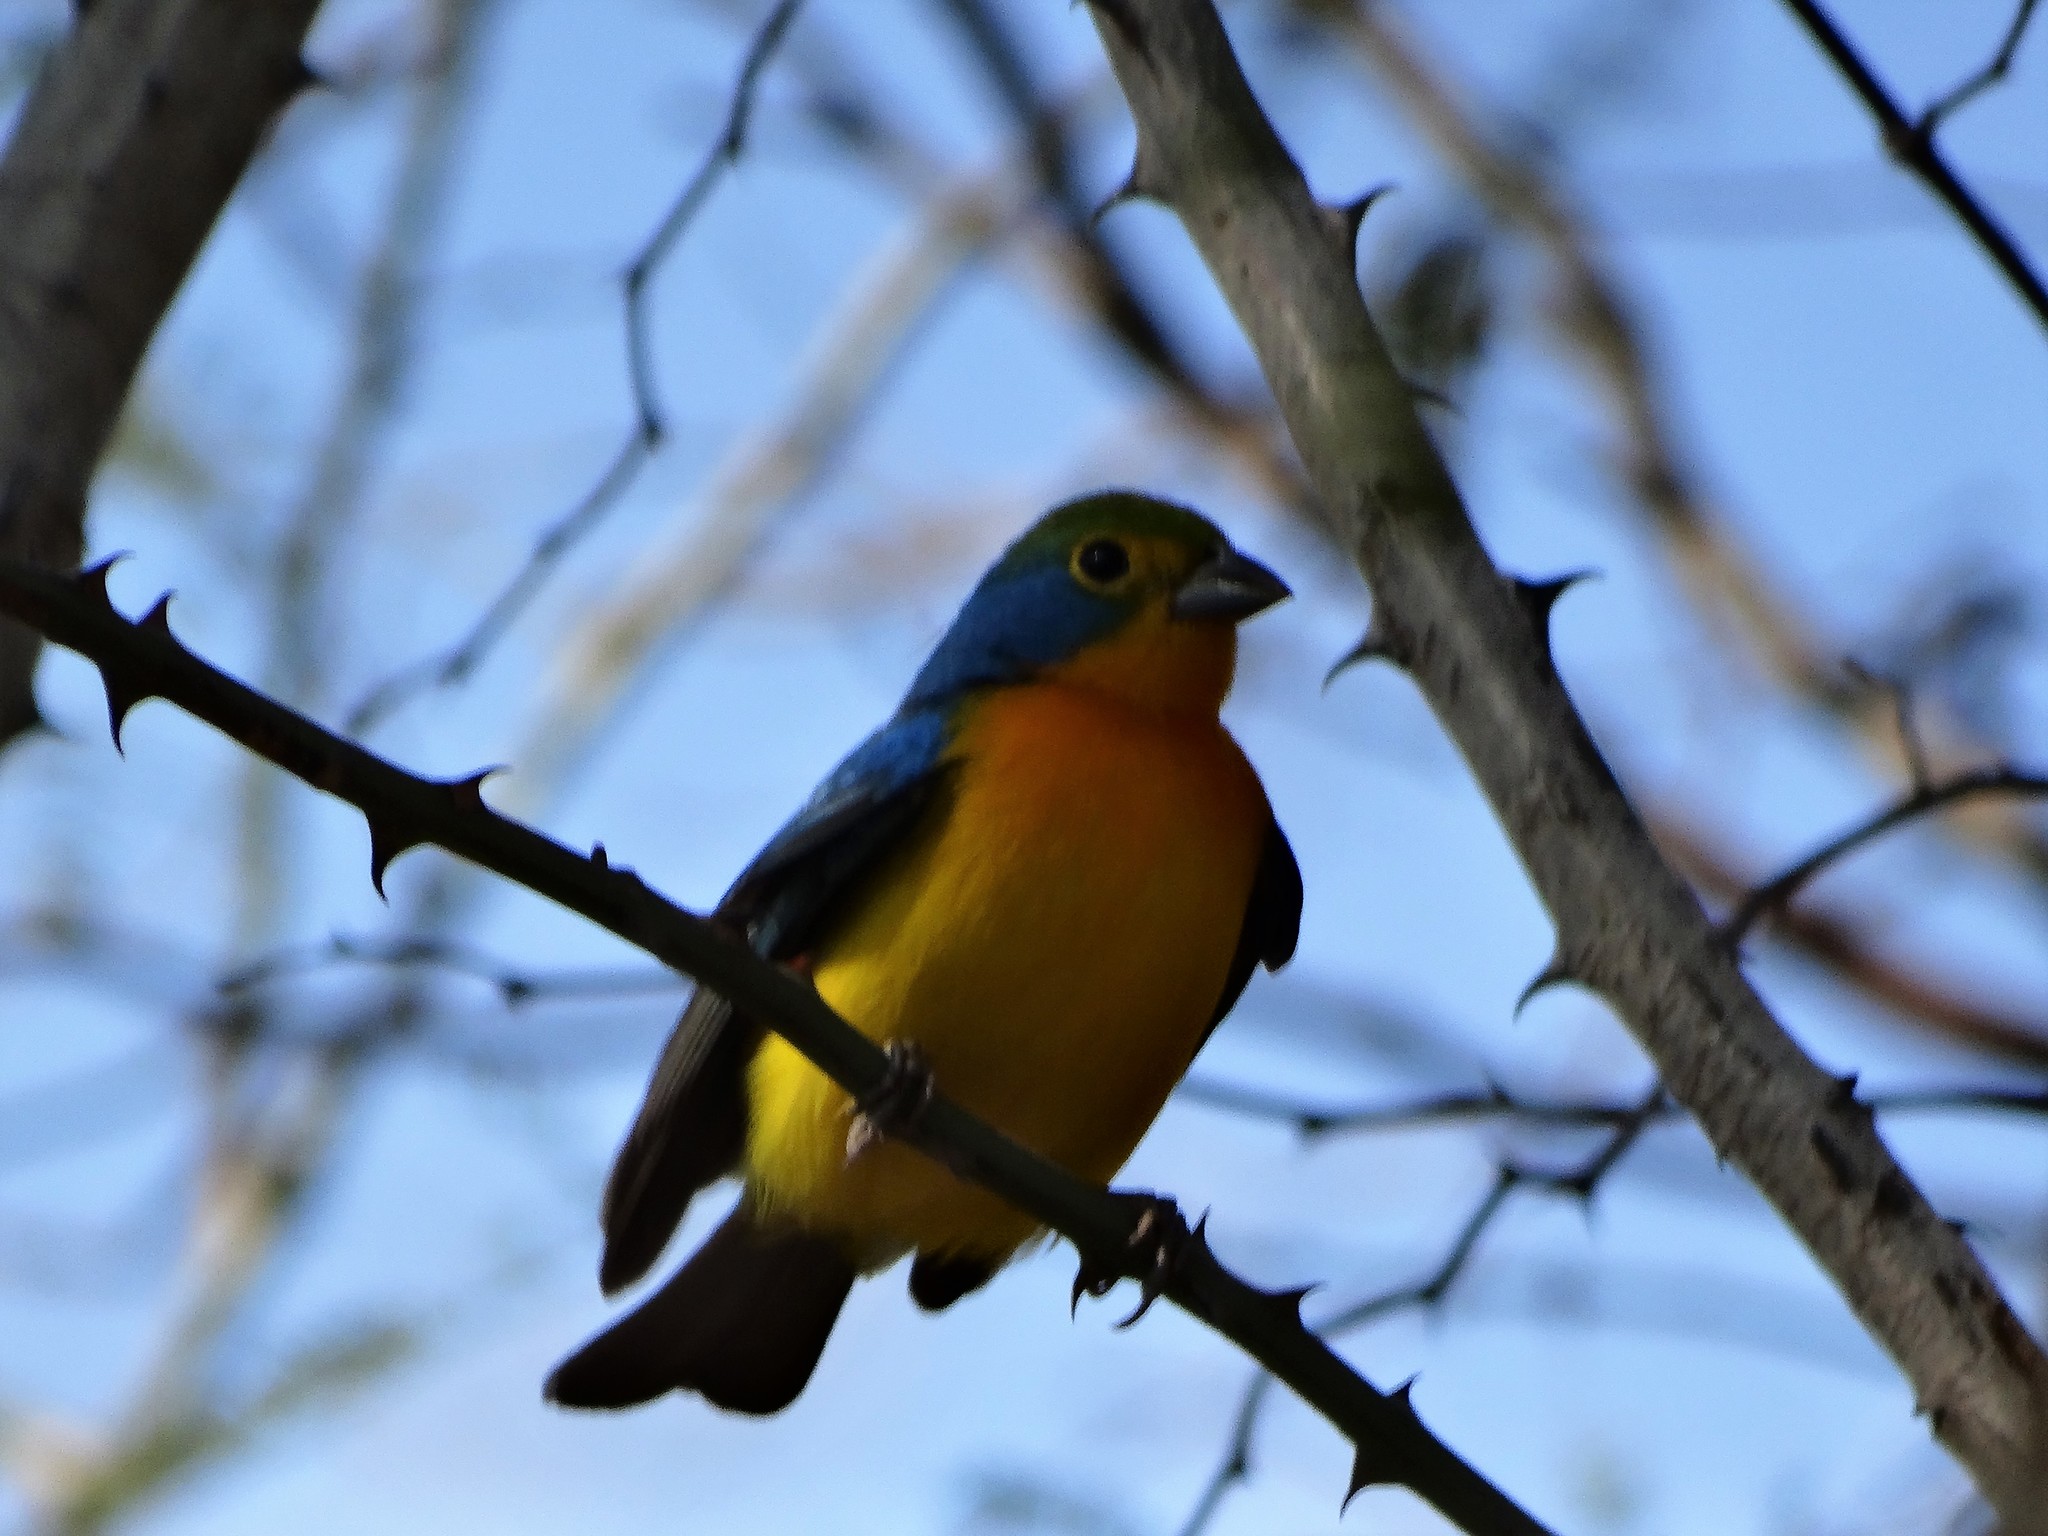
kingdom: Animalia
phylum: Chordata
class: Aves
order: Passeriformes
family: Cardinalidae
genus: Passerina
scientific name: Passerina leclancherii
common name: Orange-breasted bunting
